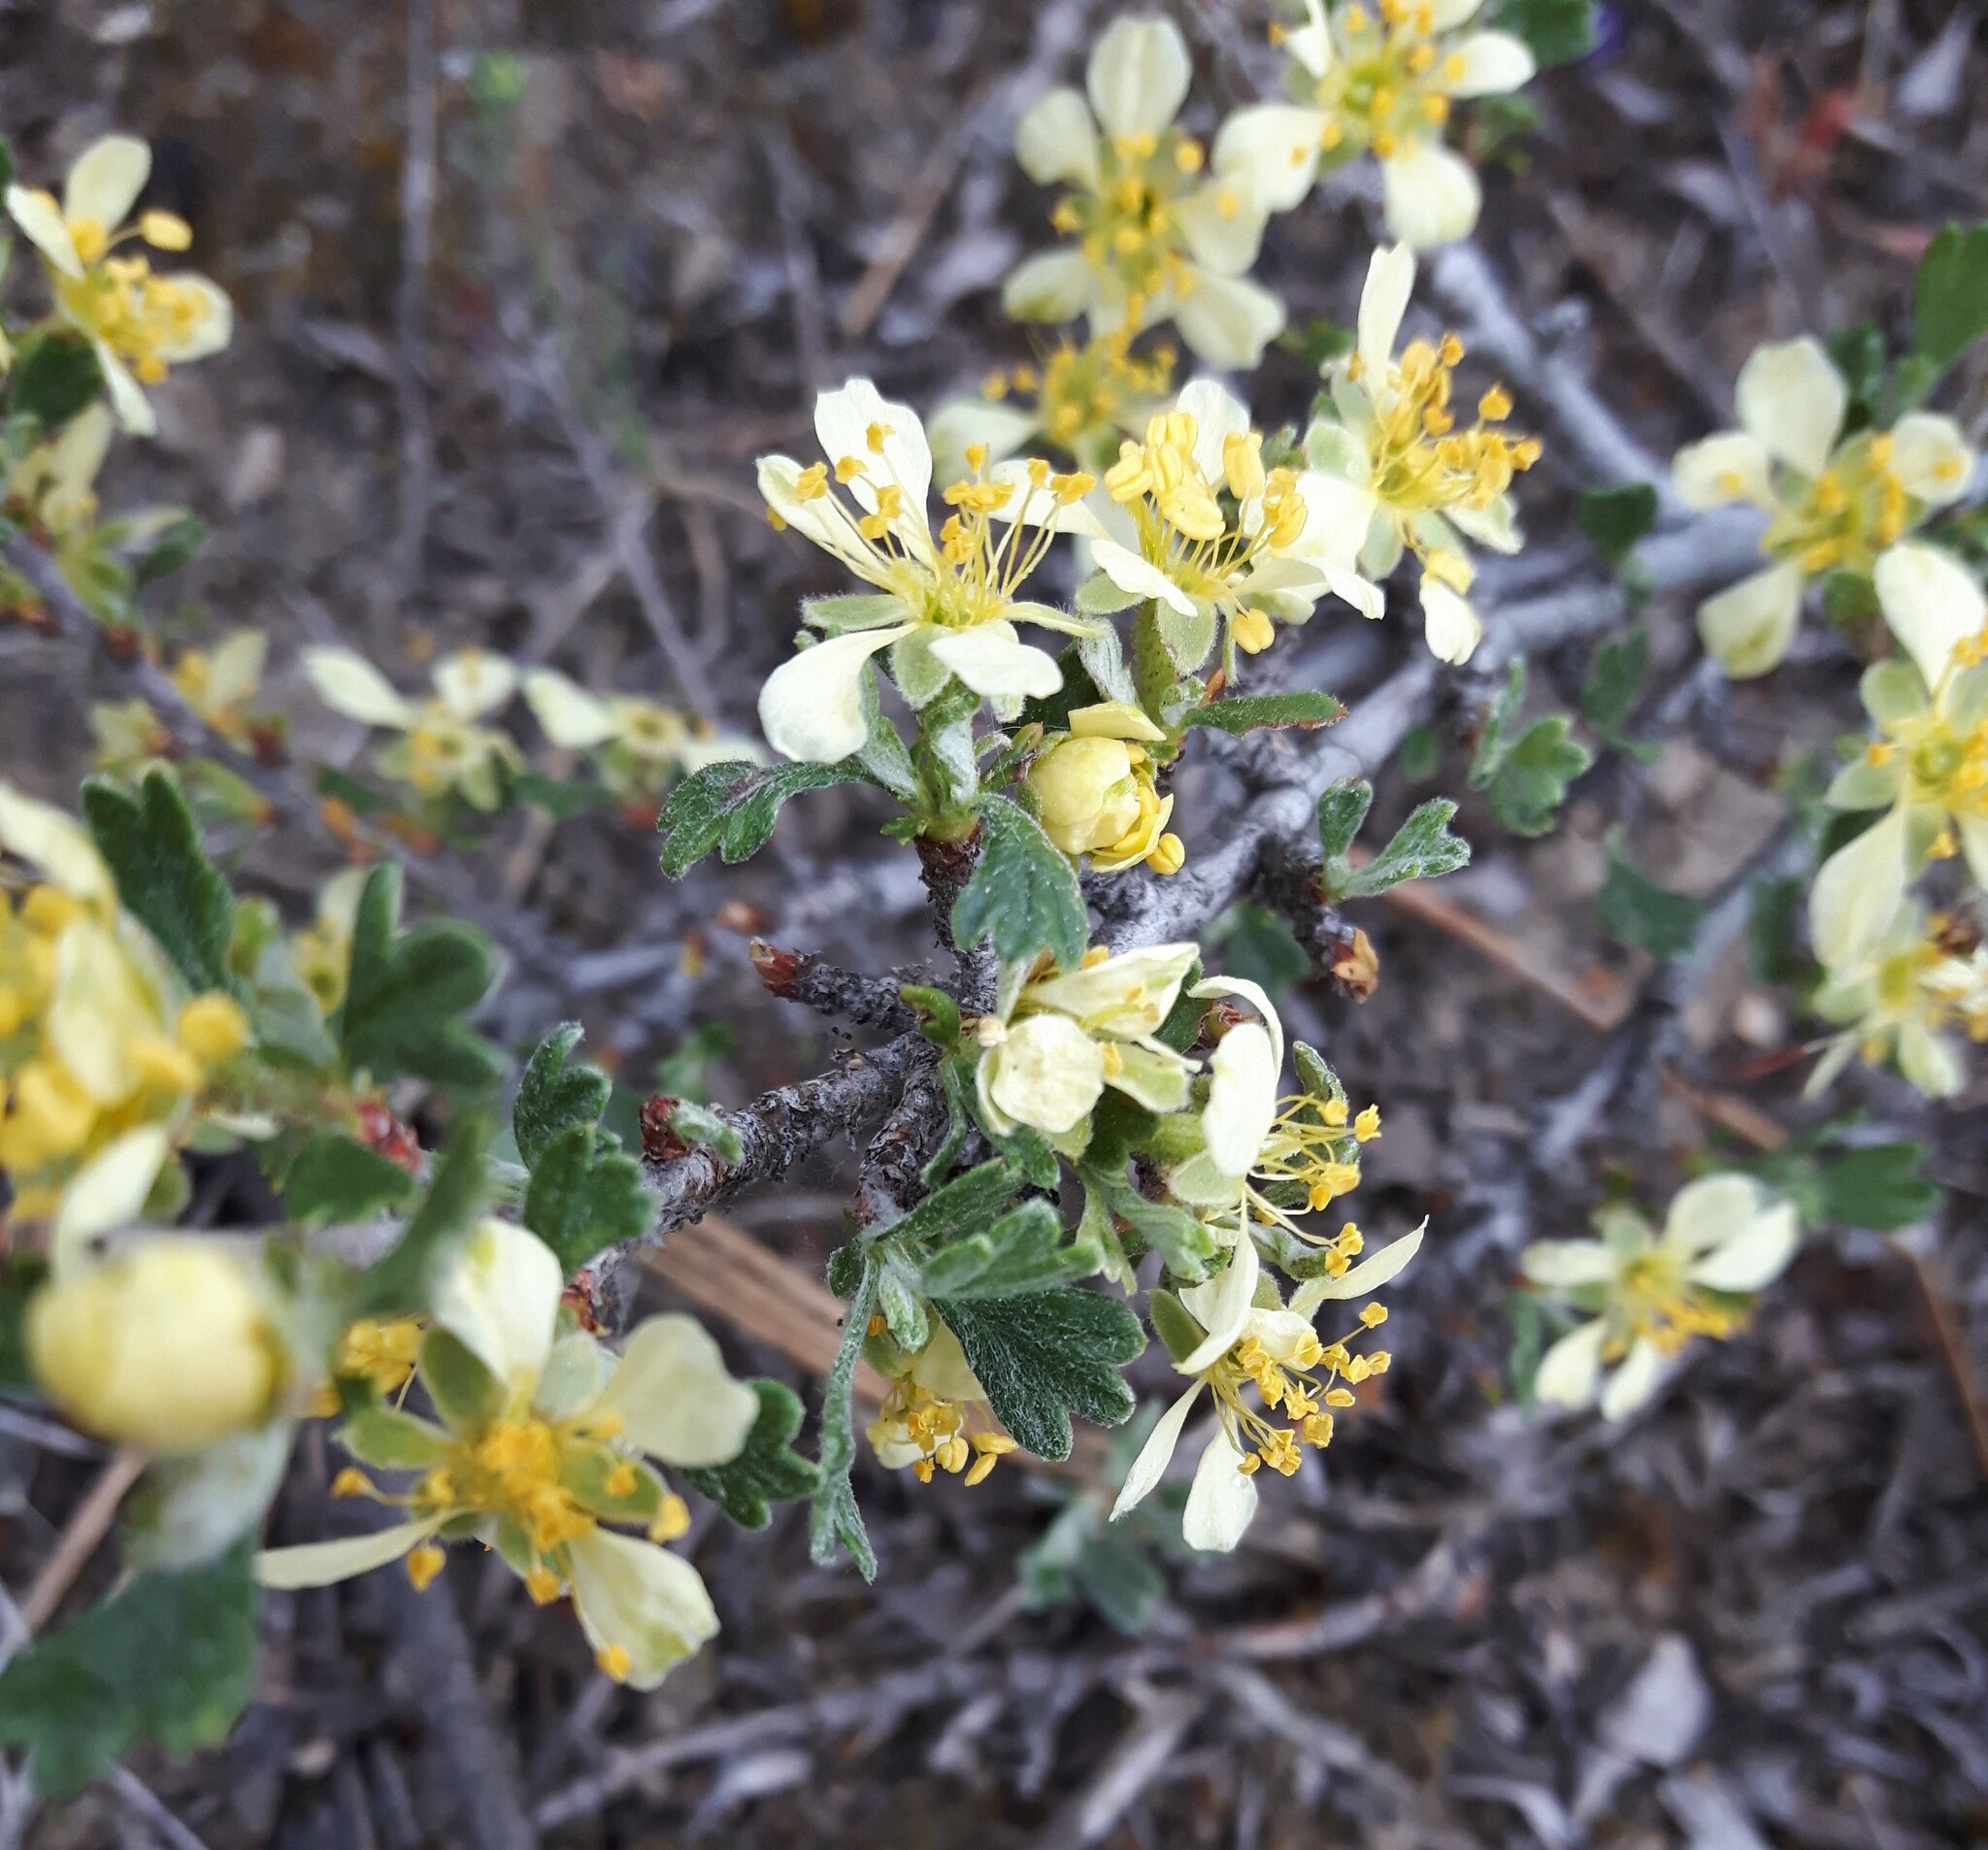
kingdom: Plantae
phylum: Tracheophyta
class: Magnoliopsida
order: Rosales
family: Rosaceae
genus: Purshia
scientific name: Purshia tridentata
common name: Antelope bitterbrush
